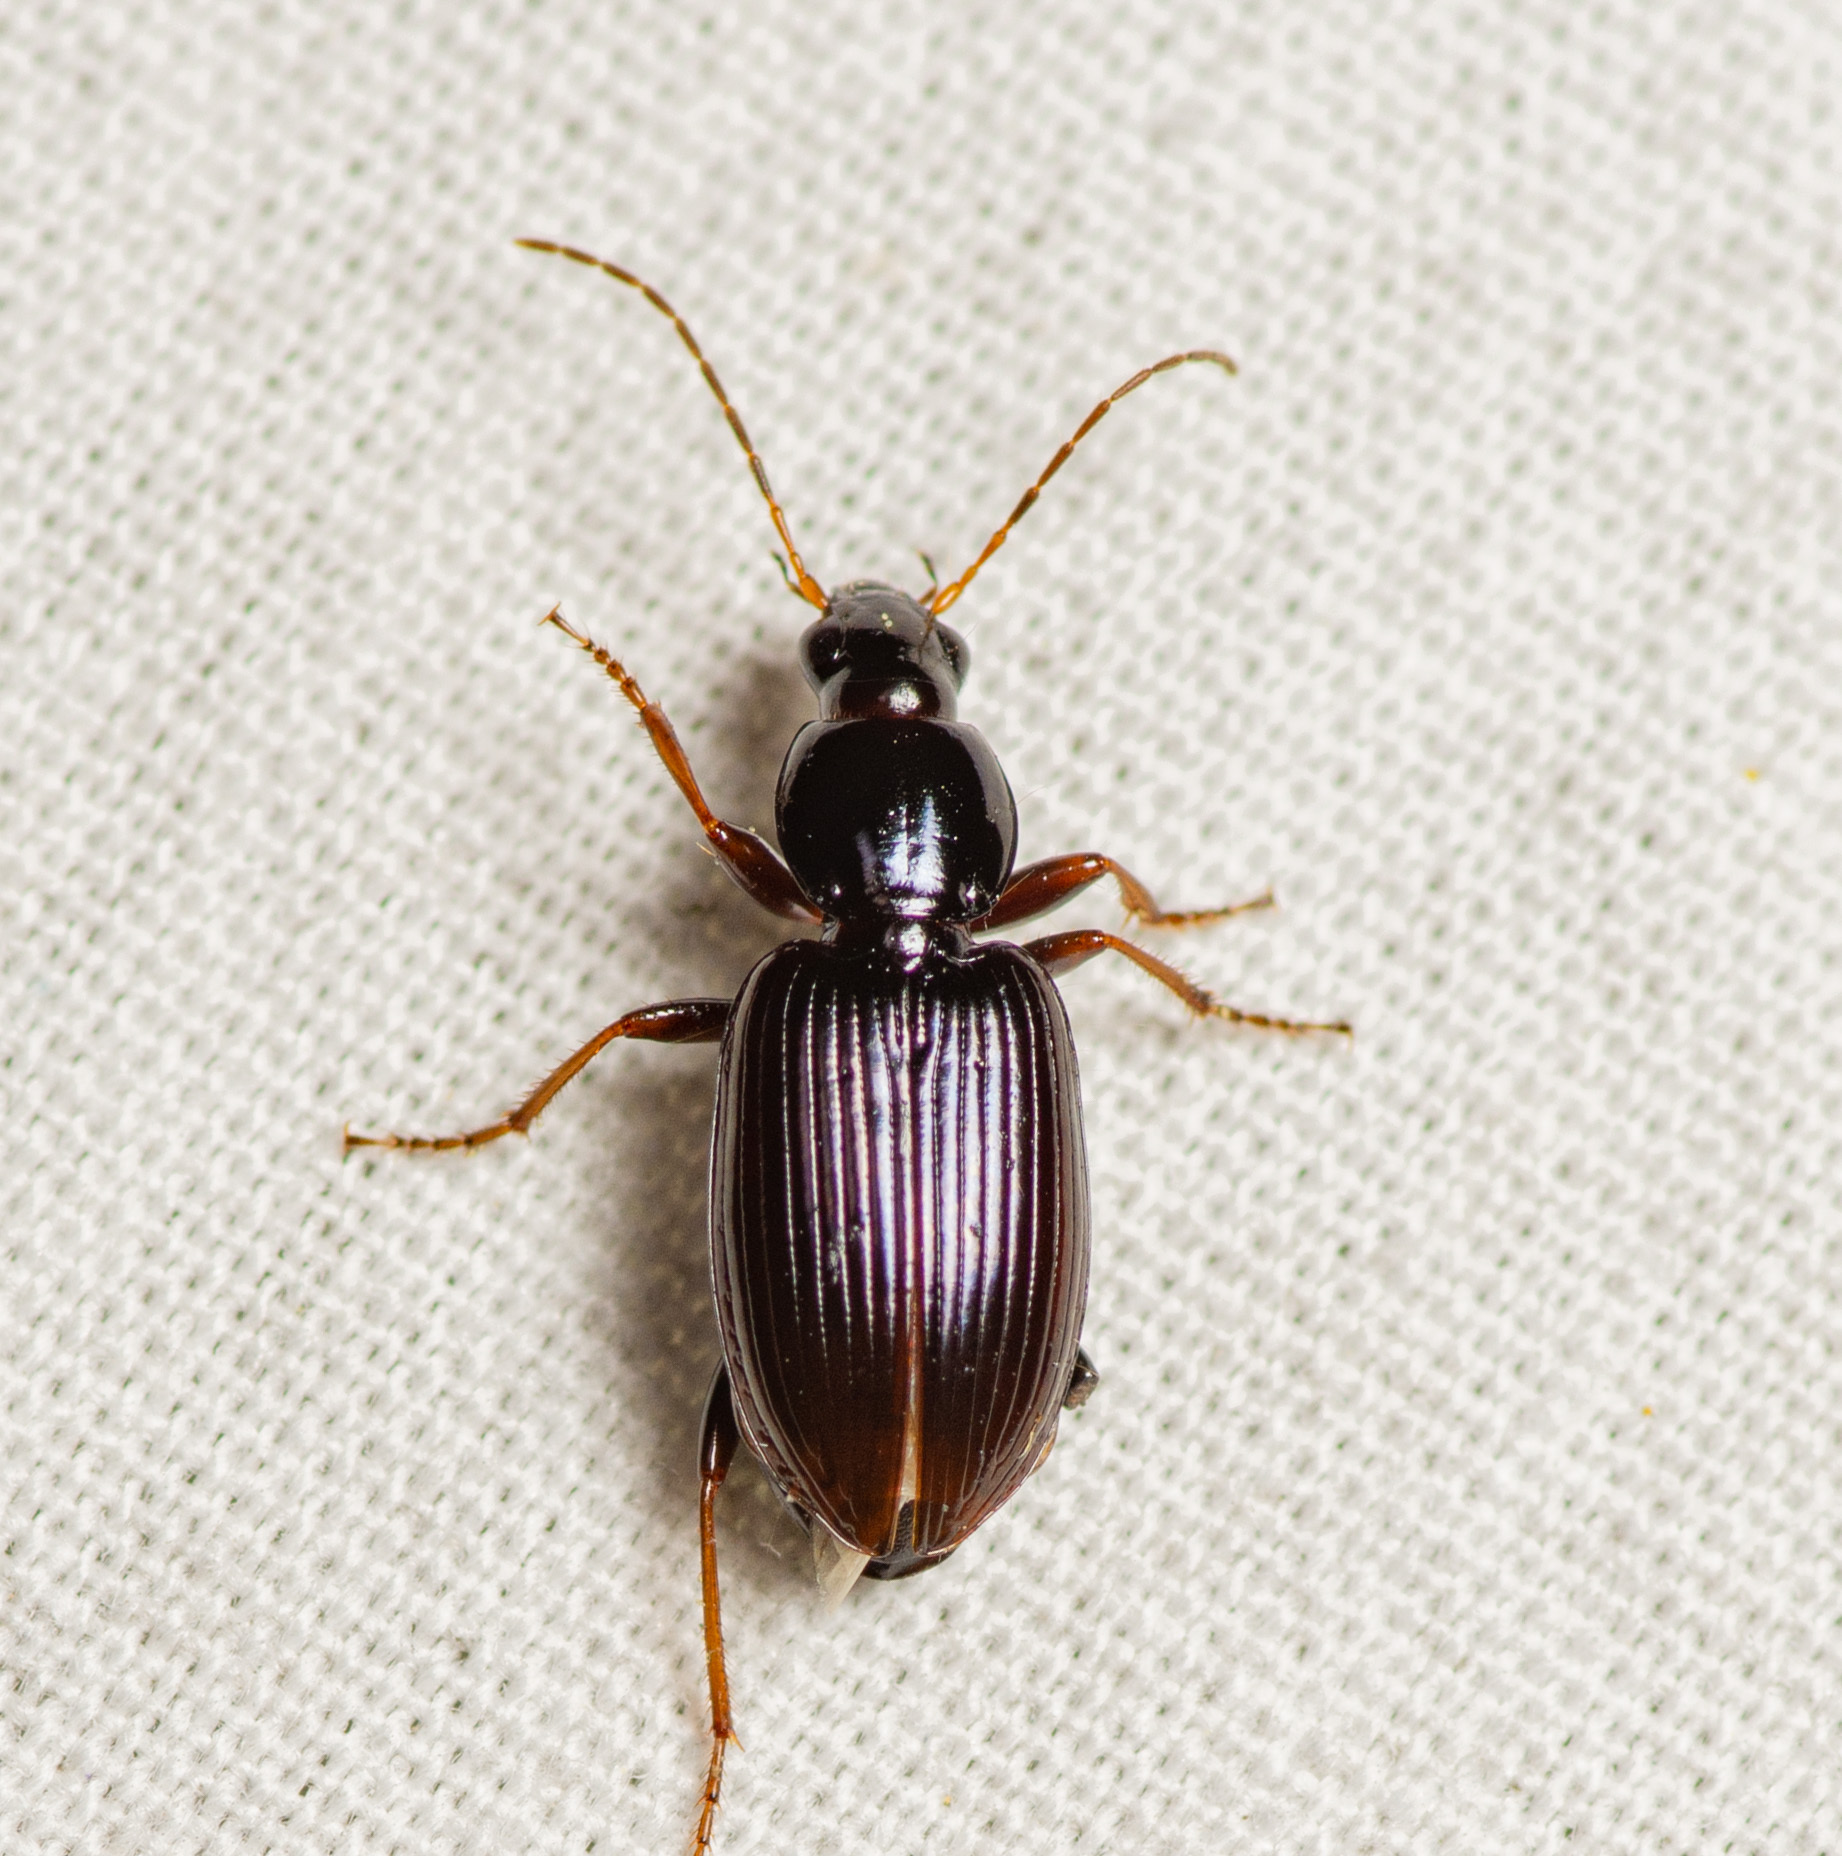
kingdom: Animalia
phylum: Arthropoda
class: Insecta
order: Coleoptera
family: Carabidae
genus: Agonum
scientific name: Agonum punctiforme
